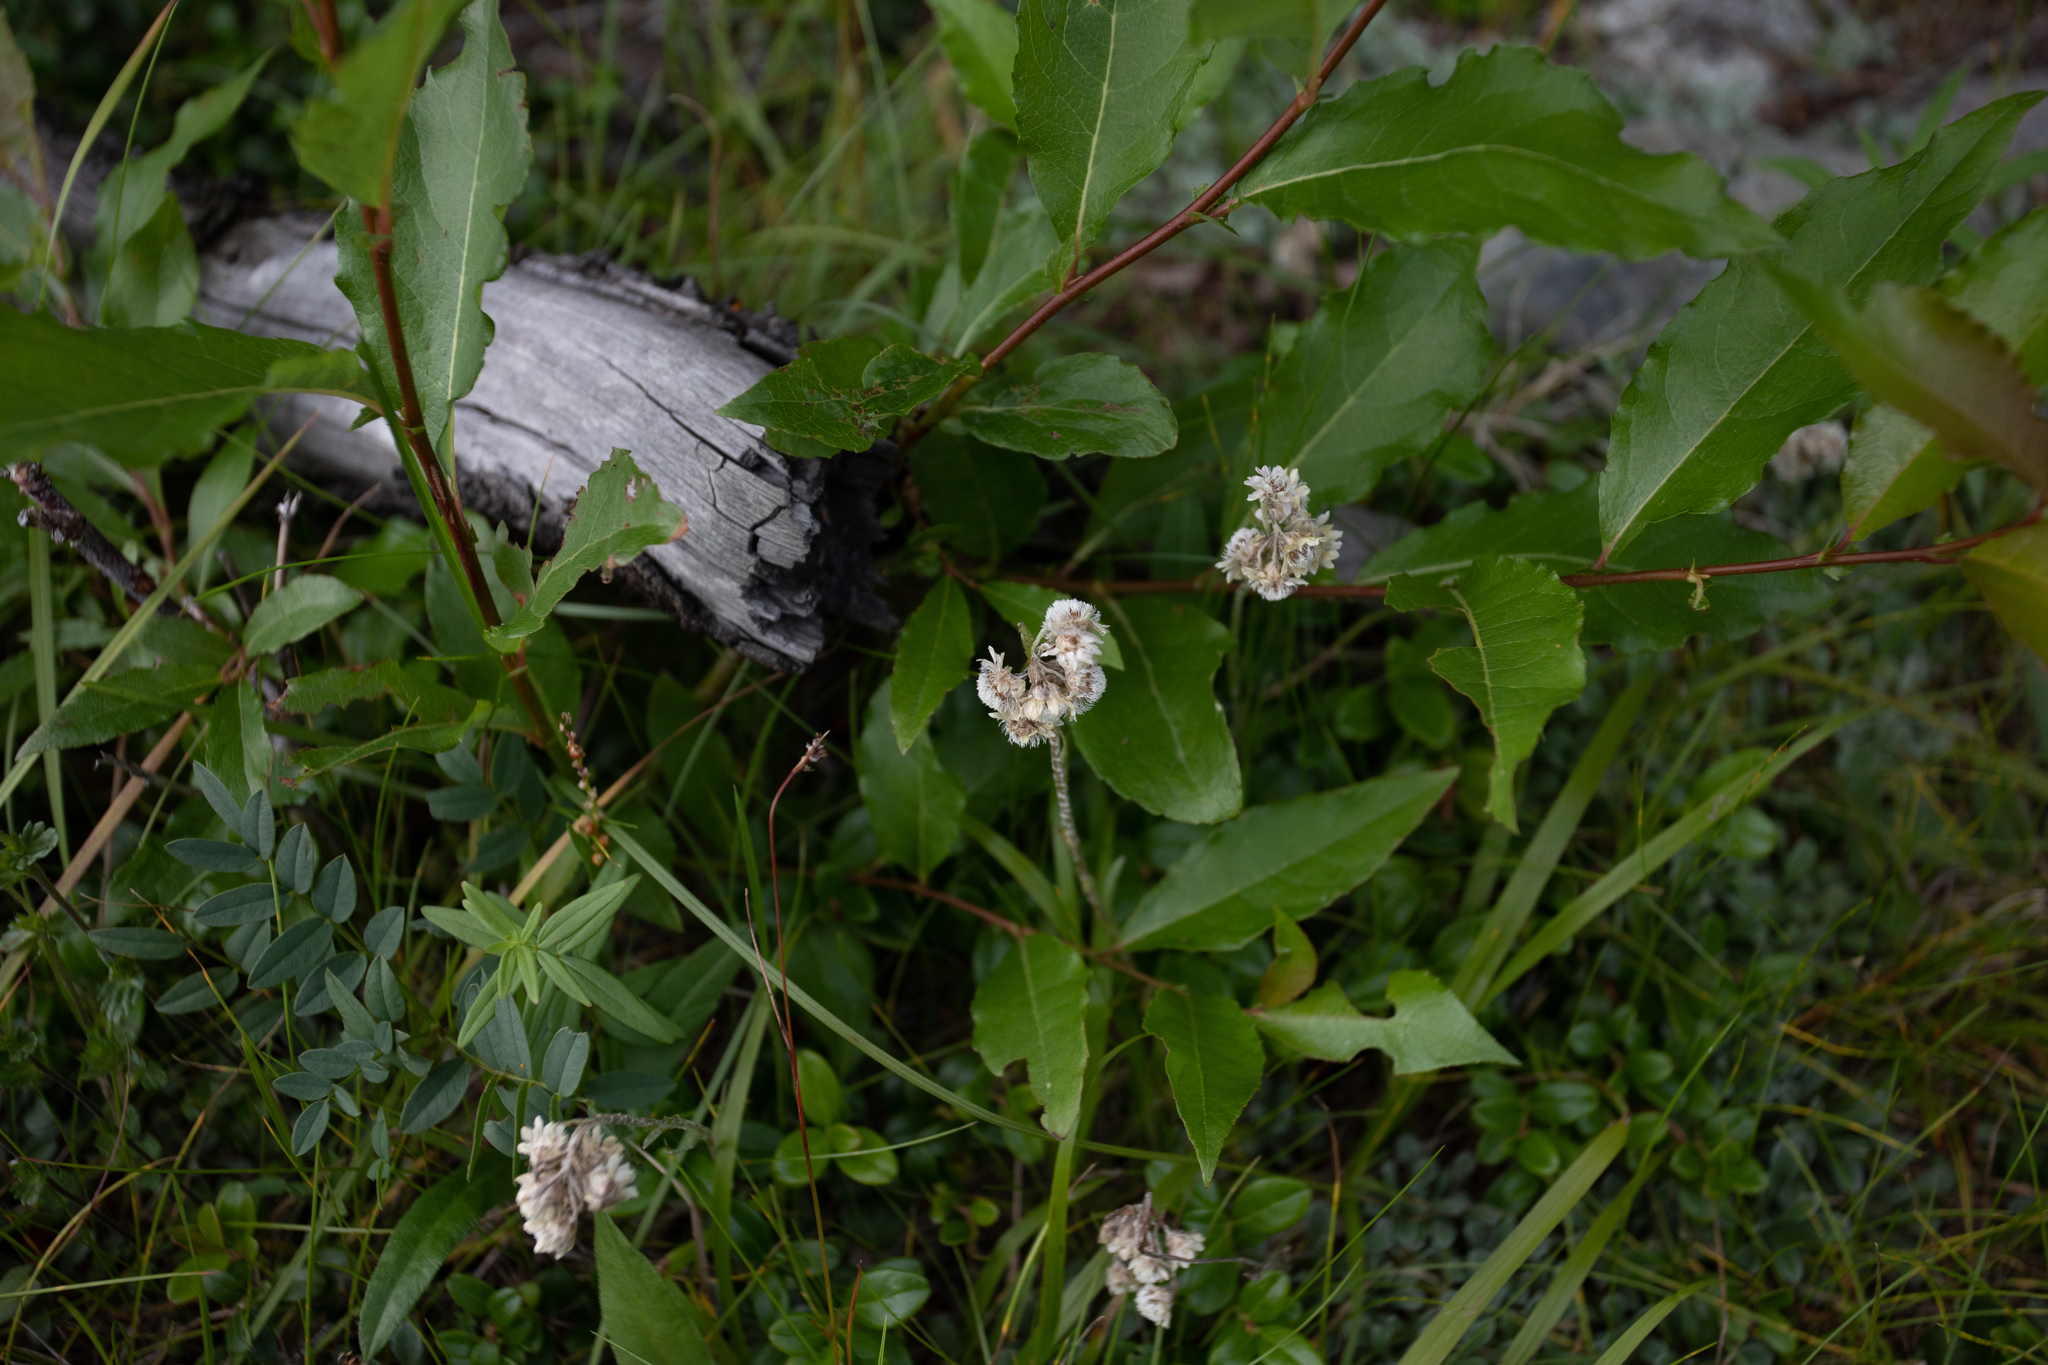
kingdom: Plantae
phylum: Tracheophyta
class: Magnoliopsida
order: Asterales
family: Asteraceae
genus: Antennaria
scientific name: Antennaria dioica
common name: Mountain everlasting
